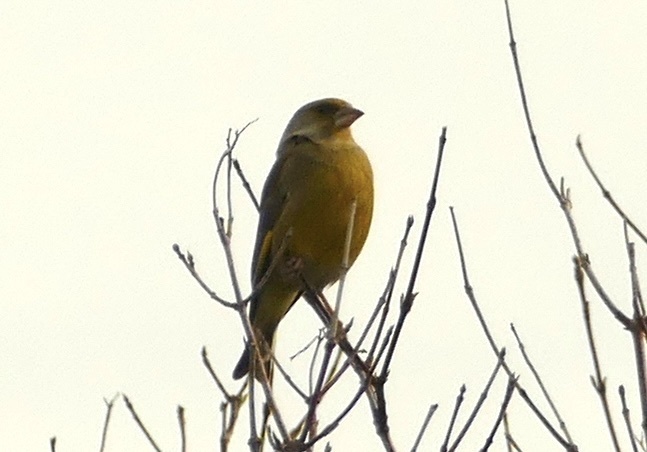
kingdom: Plantae
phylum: Tracheophyta
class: Liliopsida
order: Poales
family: Poaceae
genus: Chloris
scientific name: Chloris chloris
